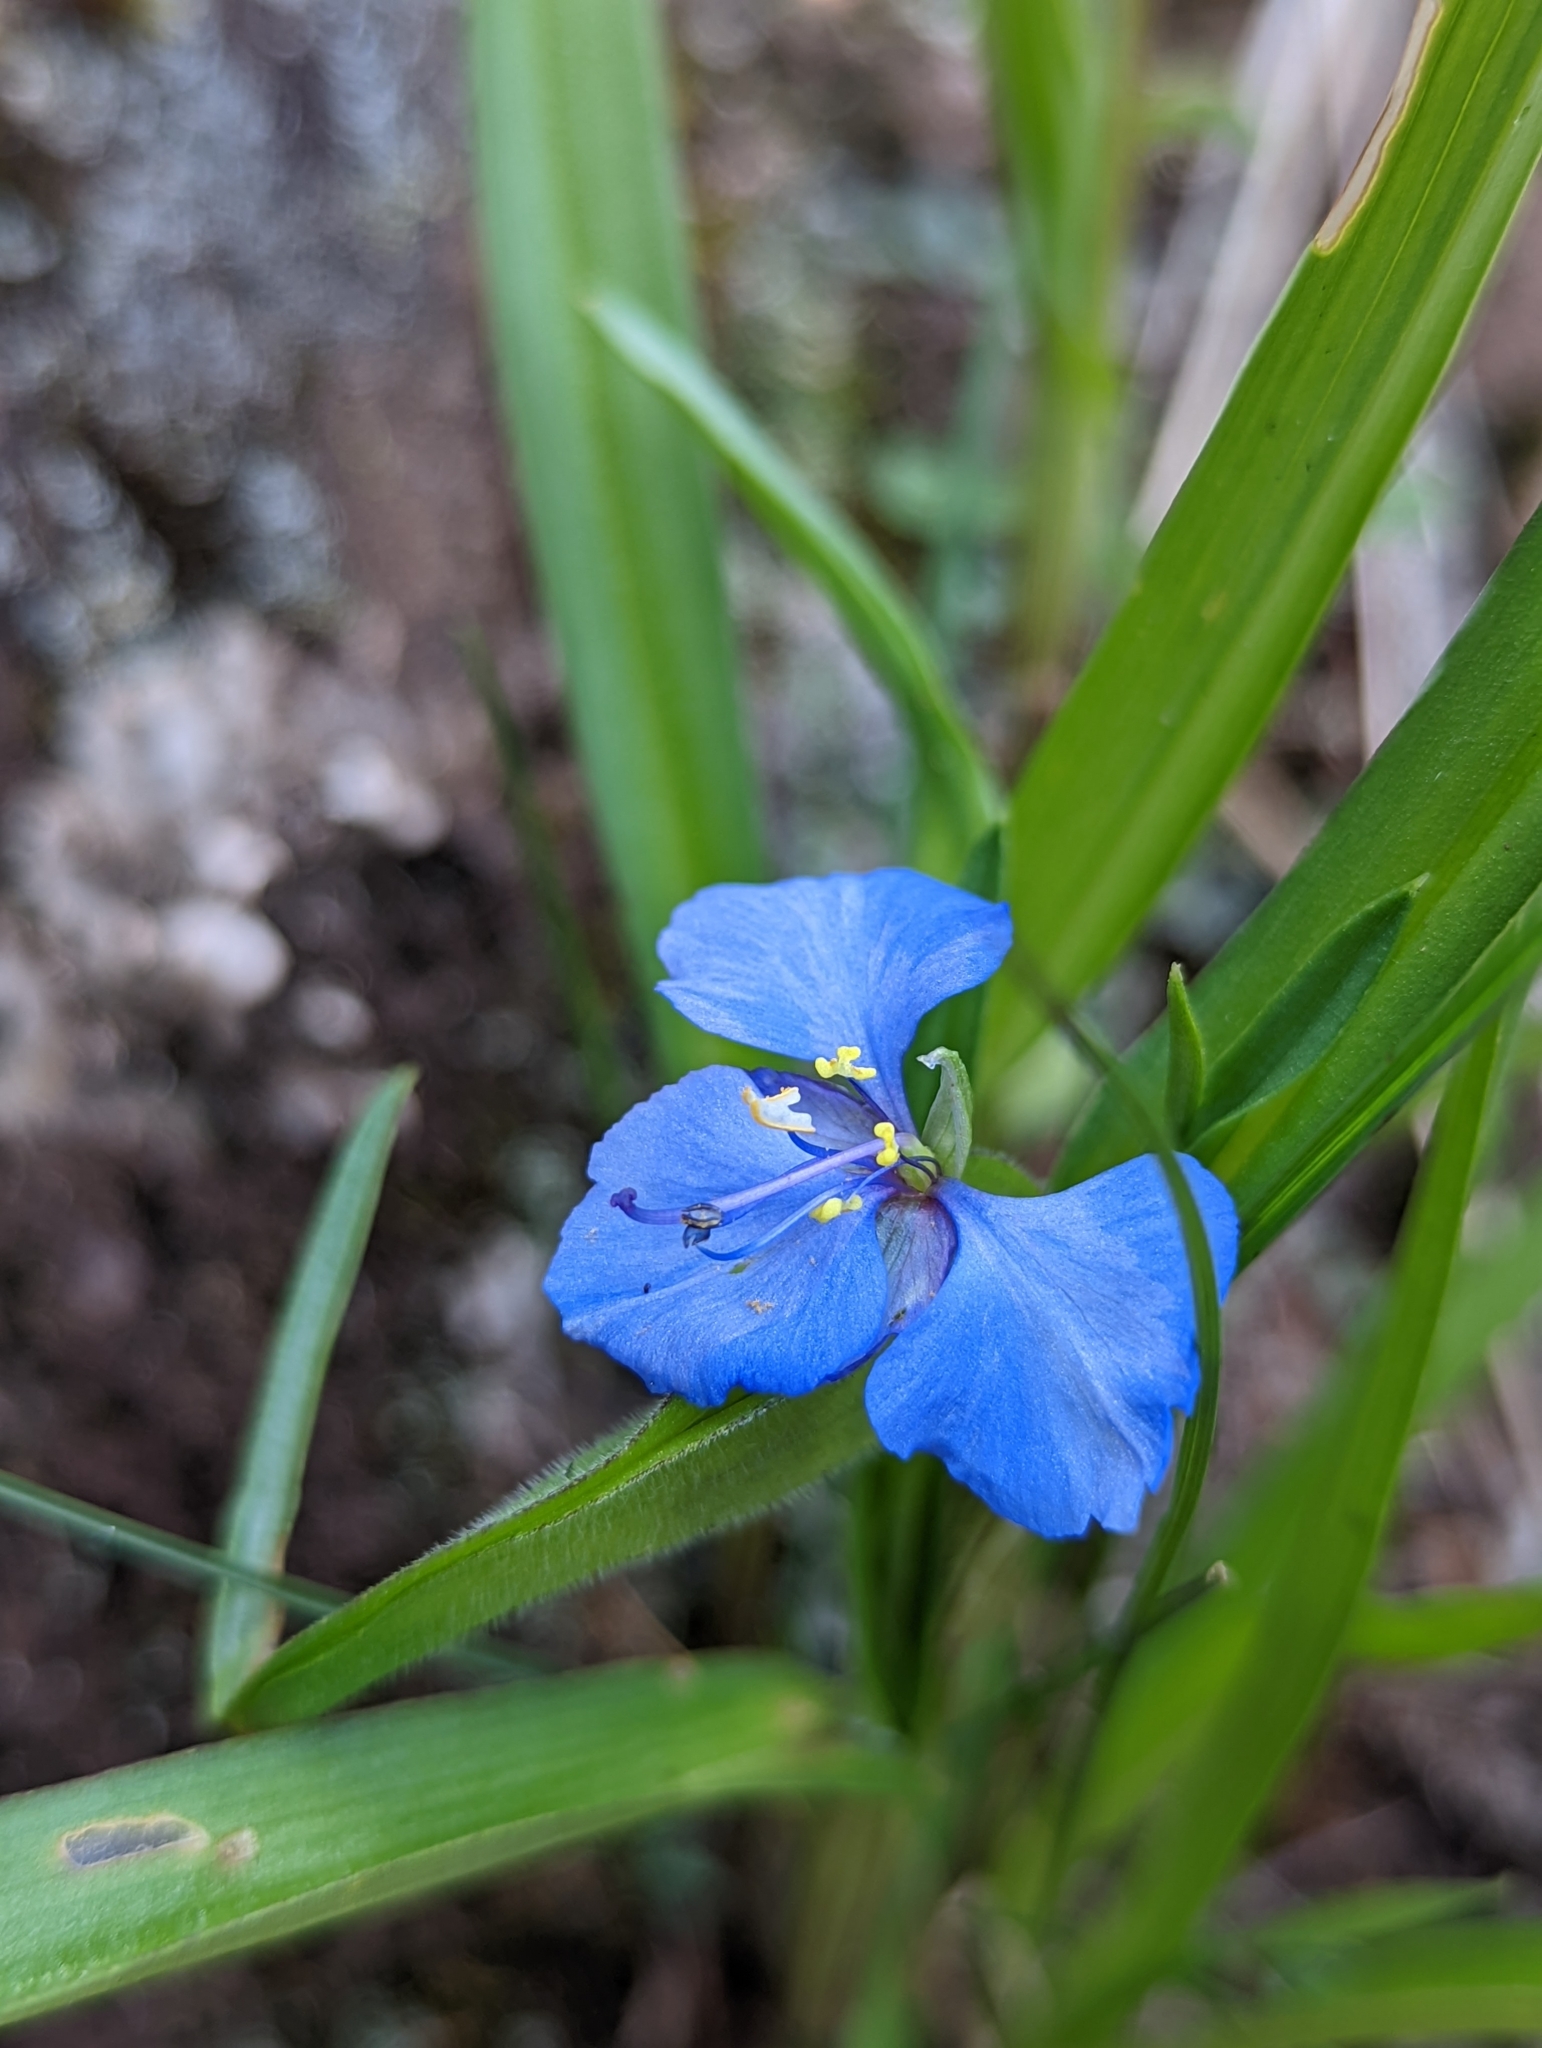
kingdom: Plantae
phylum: Tracheophyta
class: Liliopsida
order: Commelinales
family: Commelinaceae
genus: Commelina
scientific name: Commelina dianthifolia
